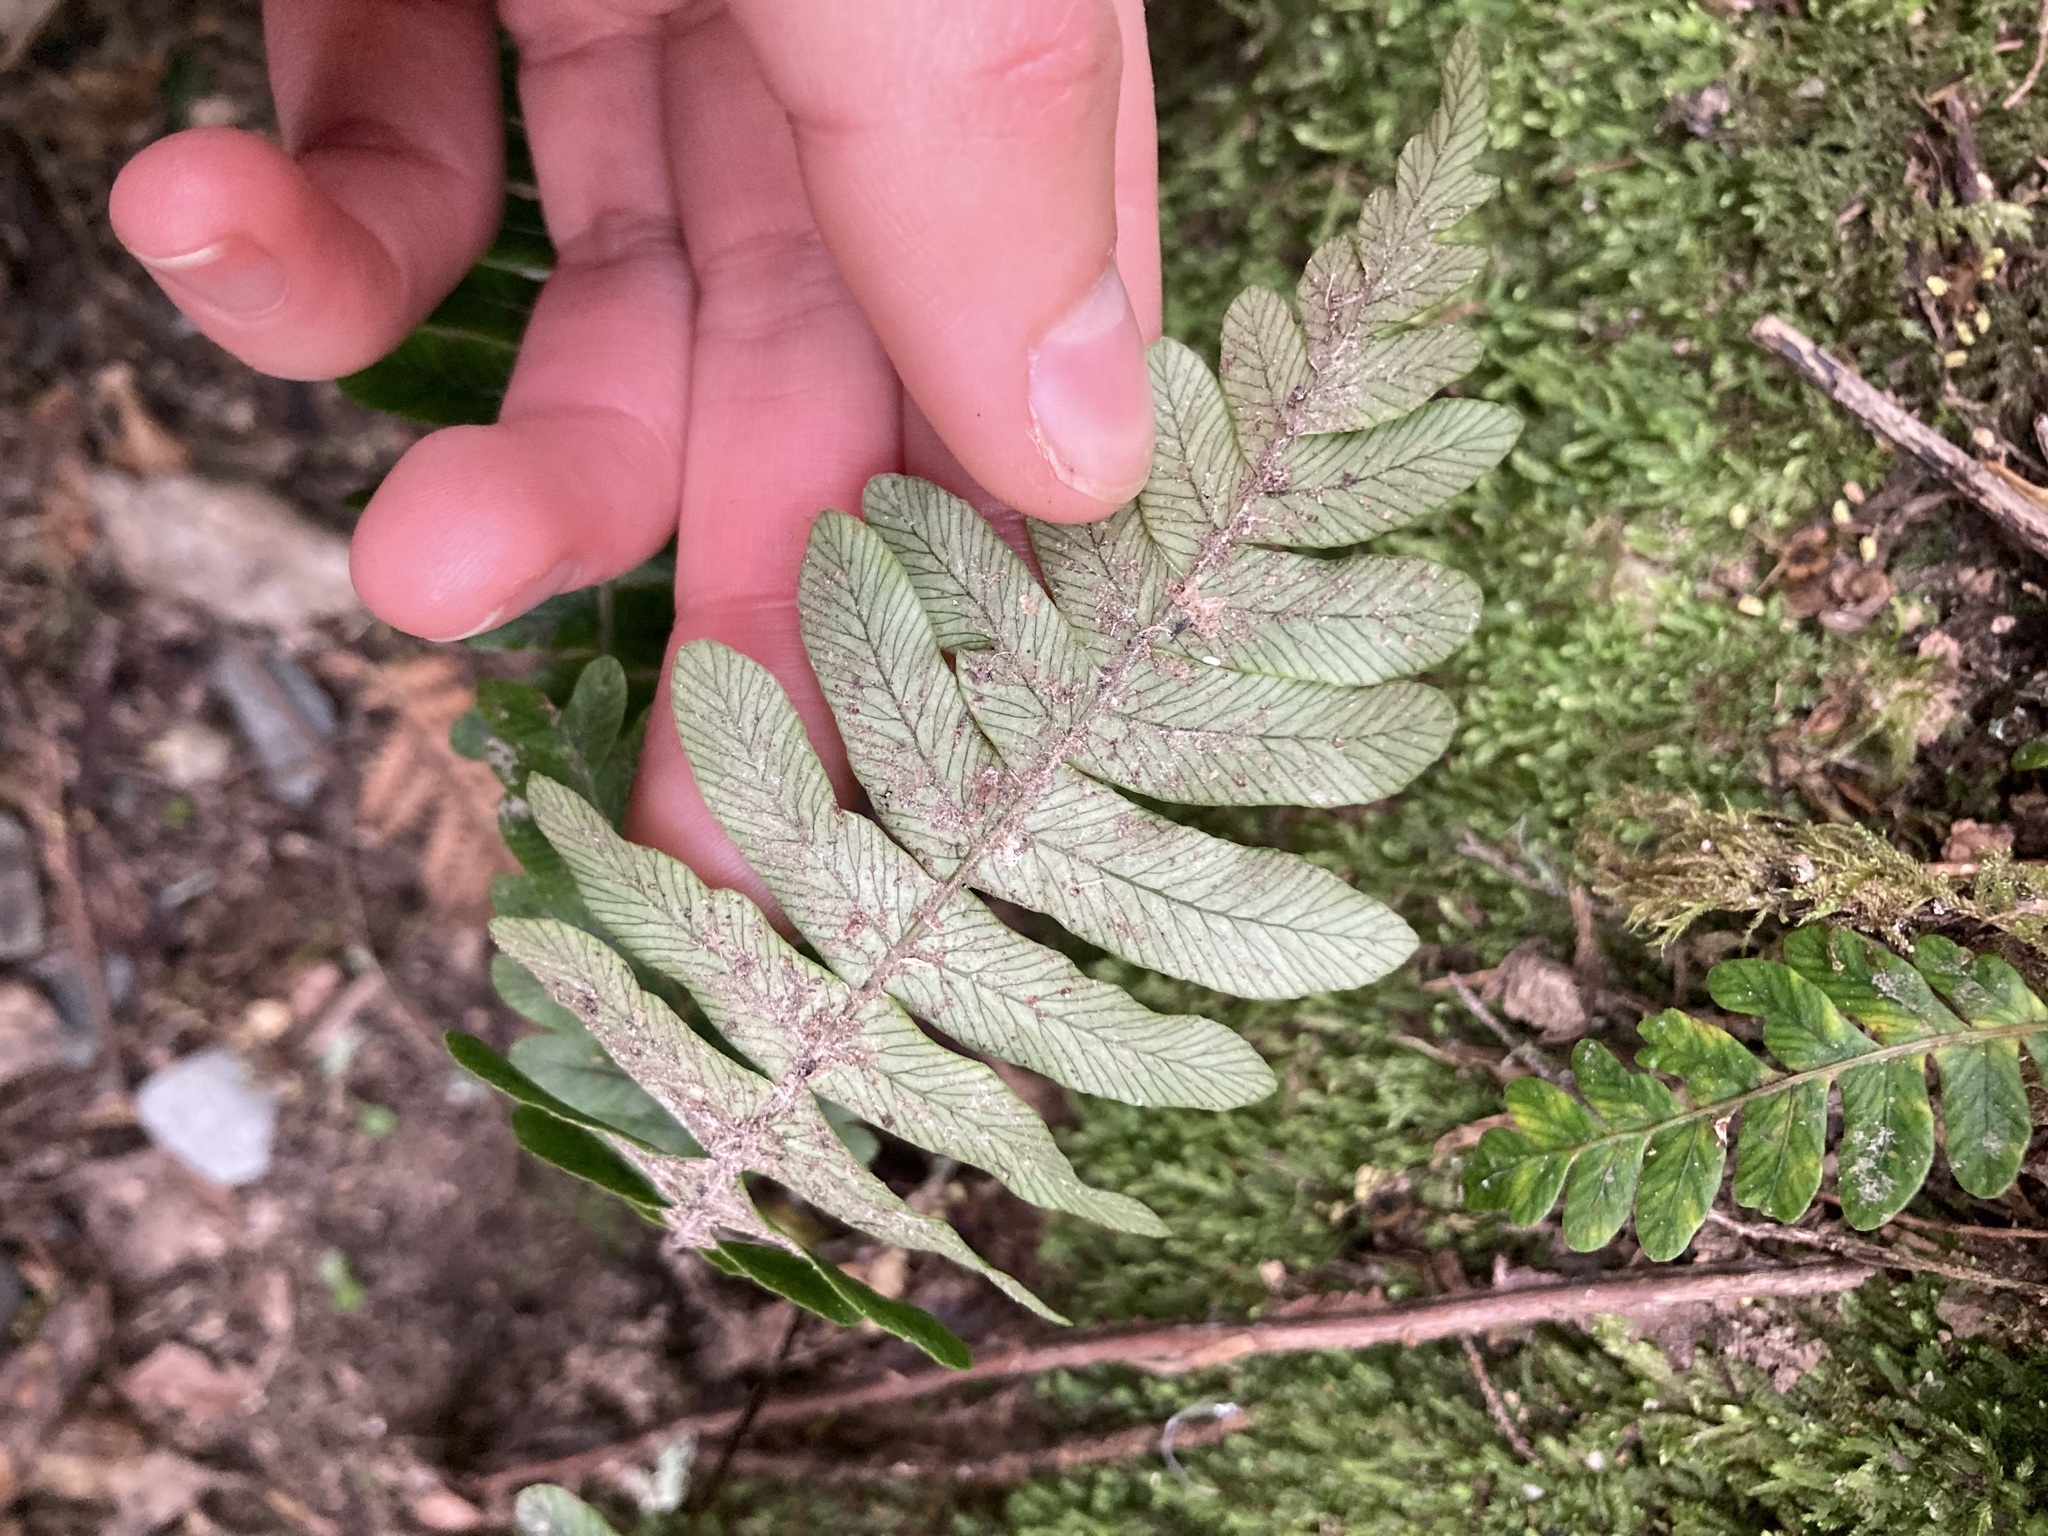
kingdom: Plantae
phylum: Tracheophyta
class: Polypodiopsida
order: Polypodiales
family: Blechnaceae
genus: Lomaria
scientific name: Lomaria discolor
